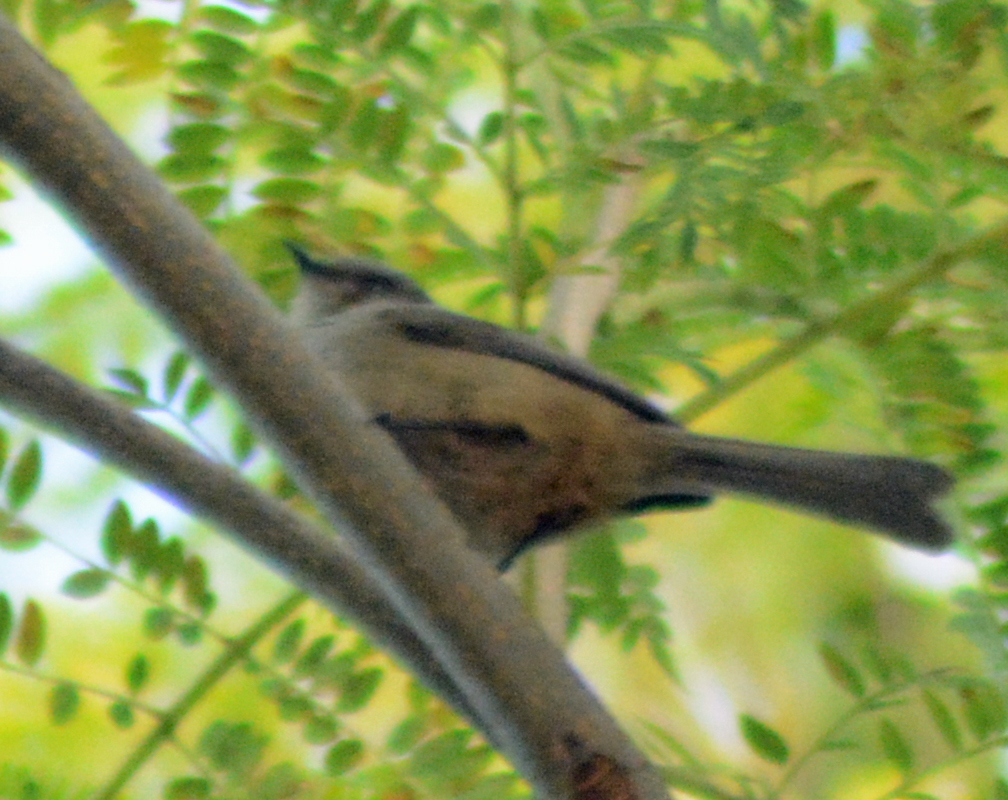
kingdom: Animalia
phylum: Chordata
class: Aves
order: Passeriformes
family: Aegithalidae
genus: Psaltriparus
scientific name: Psaltriparus minimus
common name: American bushtit
